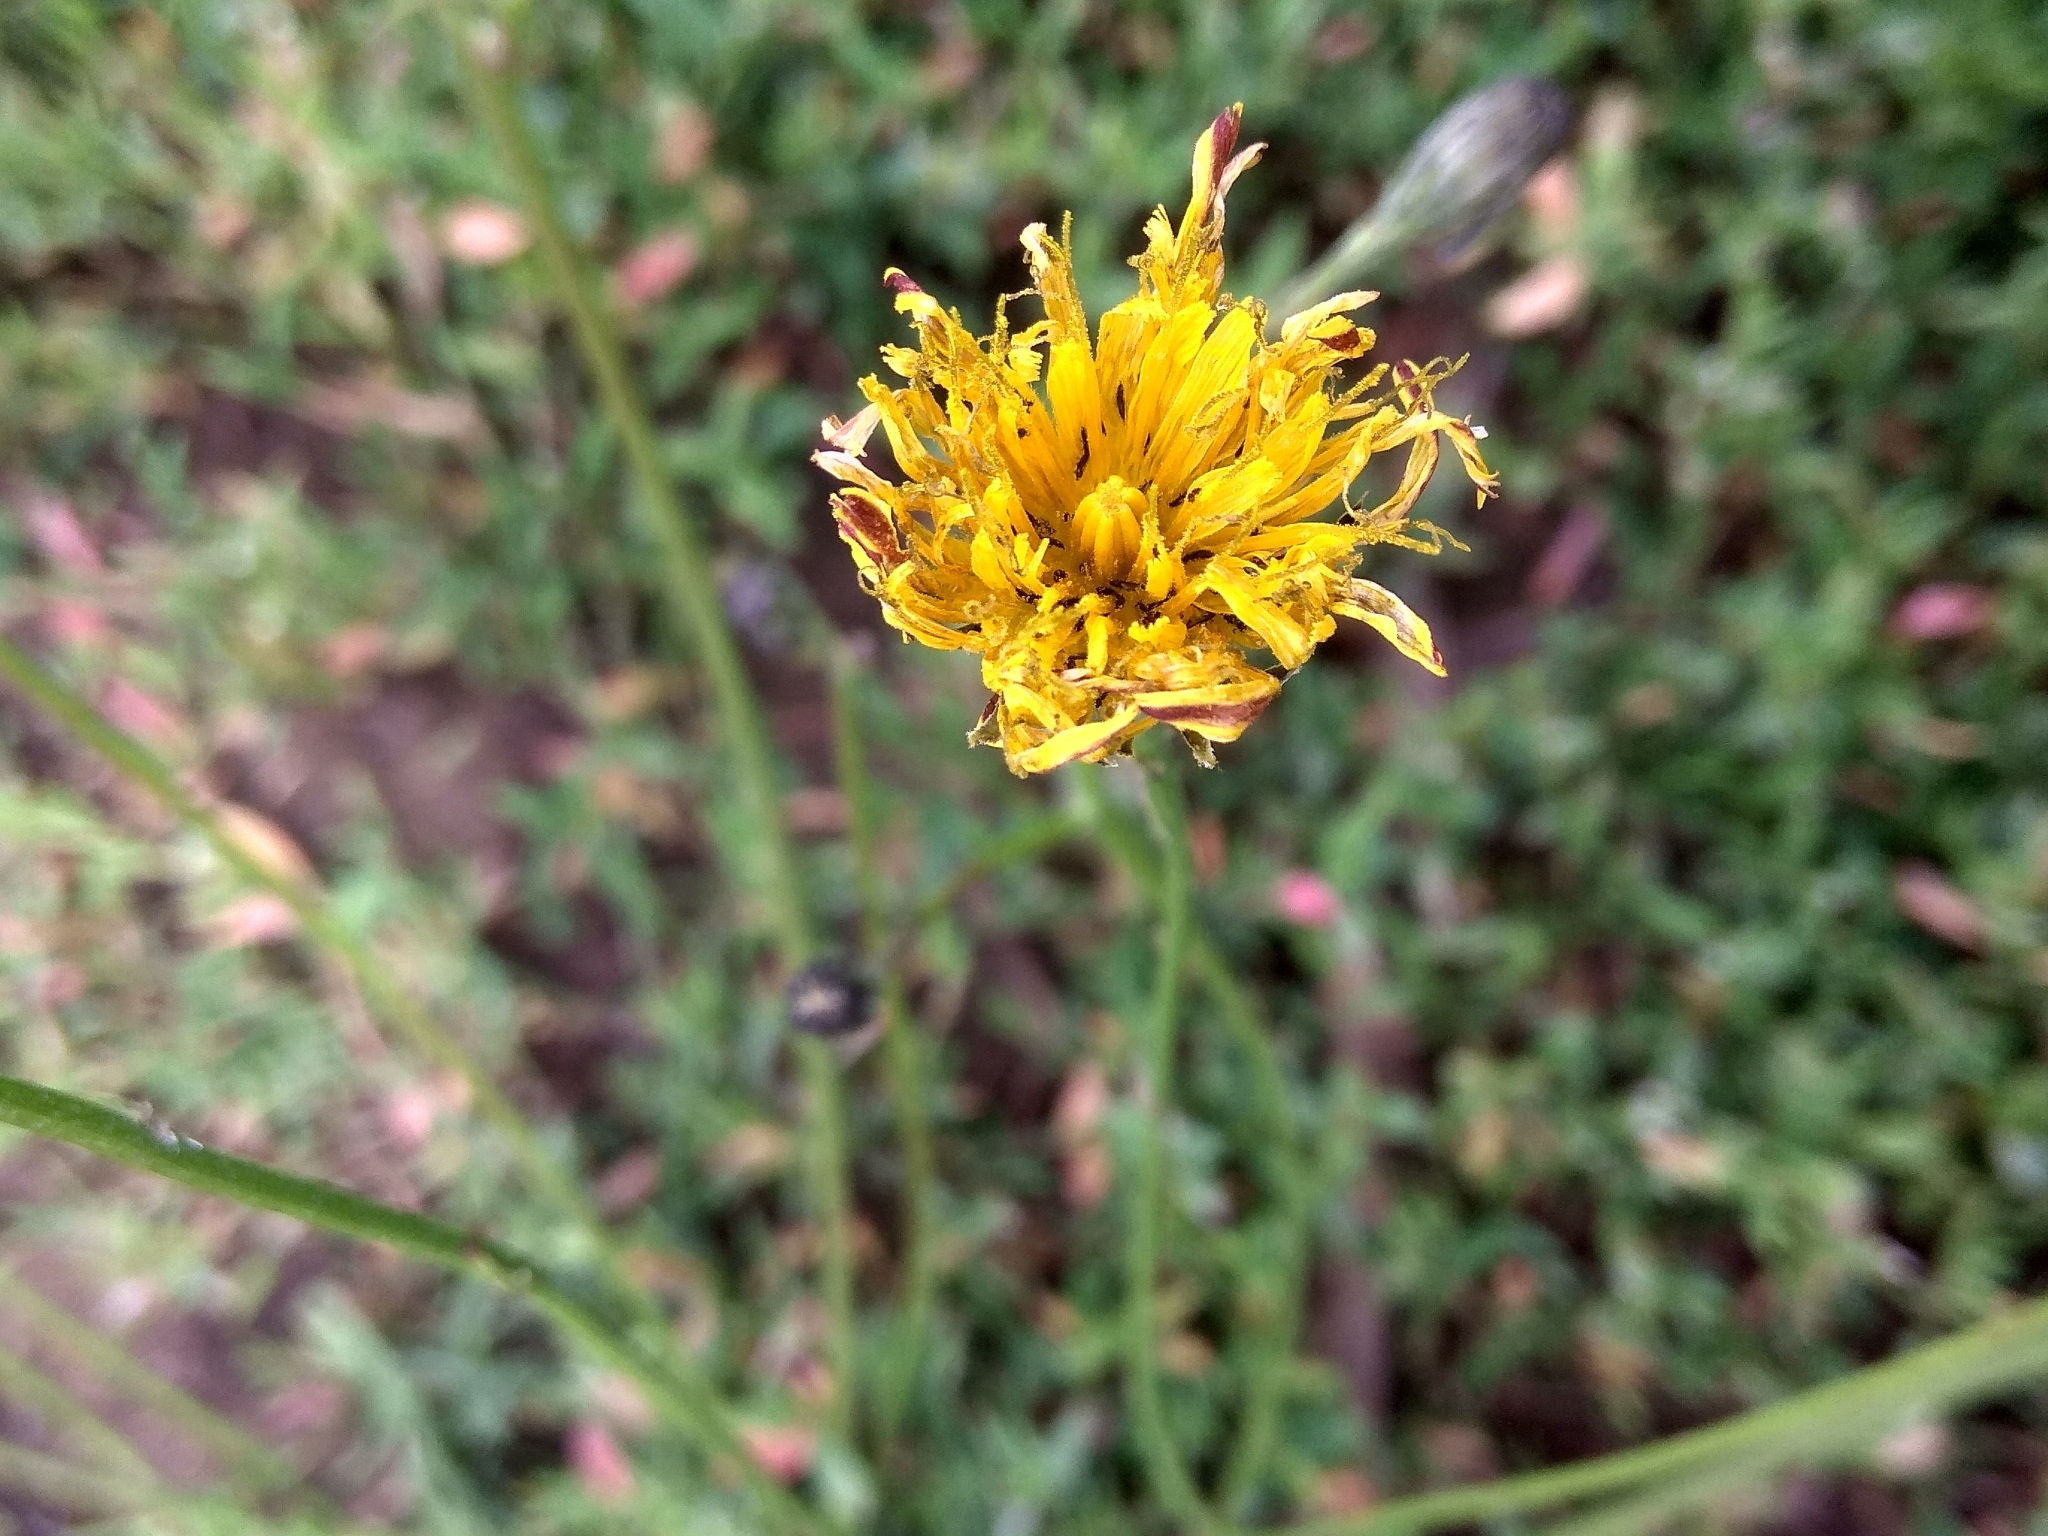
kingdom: Plantae
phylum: Tracheophyta
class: Magnoliopsida
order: Asterales
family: Asteraceae
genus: Scorzoneroides
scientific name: Scorzoneroides autumnalis
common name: Autumn hawkbit
